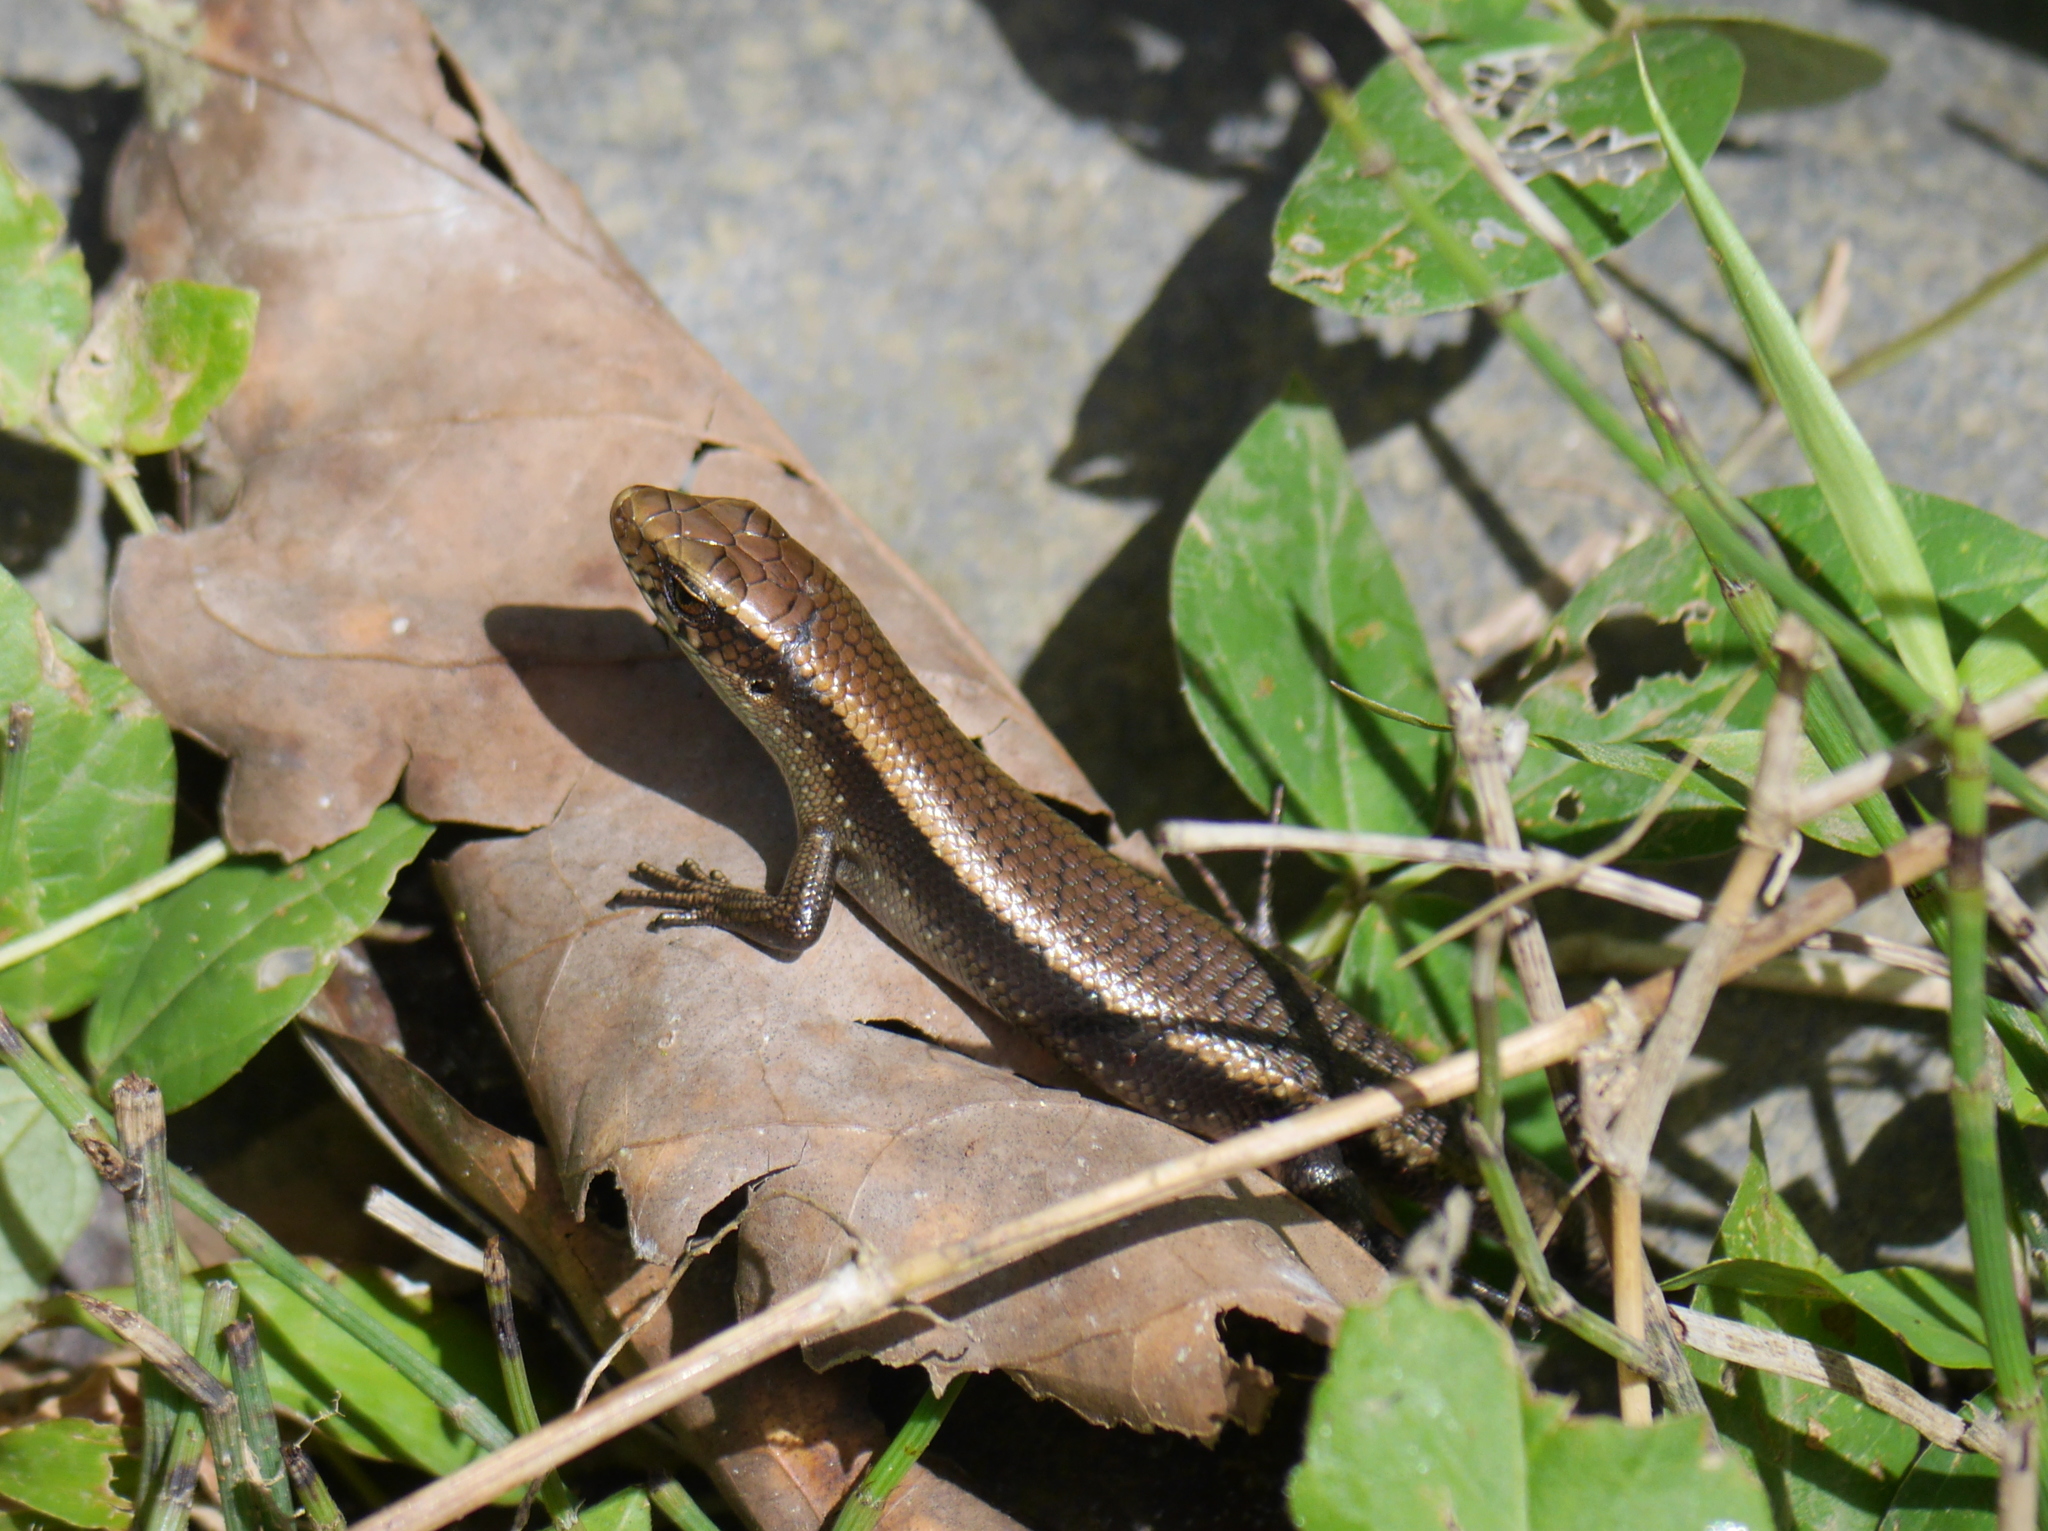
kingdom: Animalia
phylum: Chordata
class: Squamata
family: Scincidae
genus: Eutropis
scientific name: Eutropis multifasciata
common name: Common mabuya
